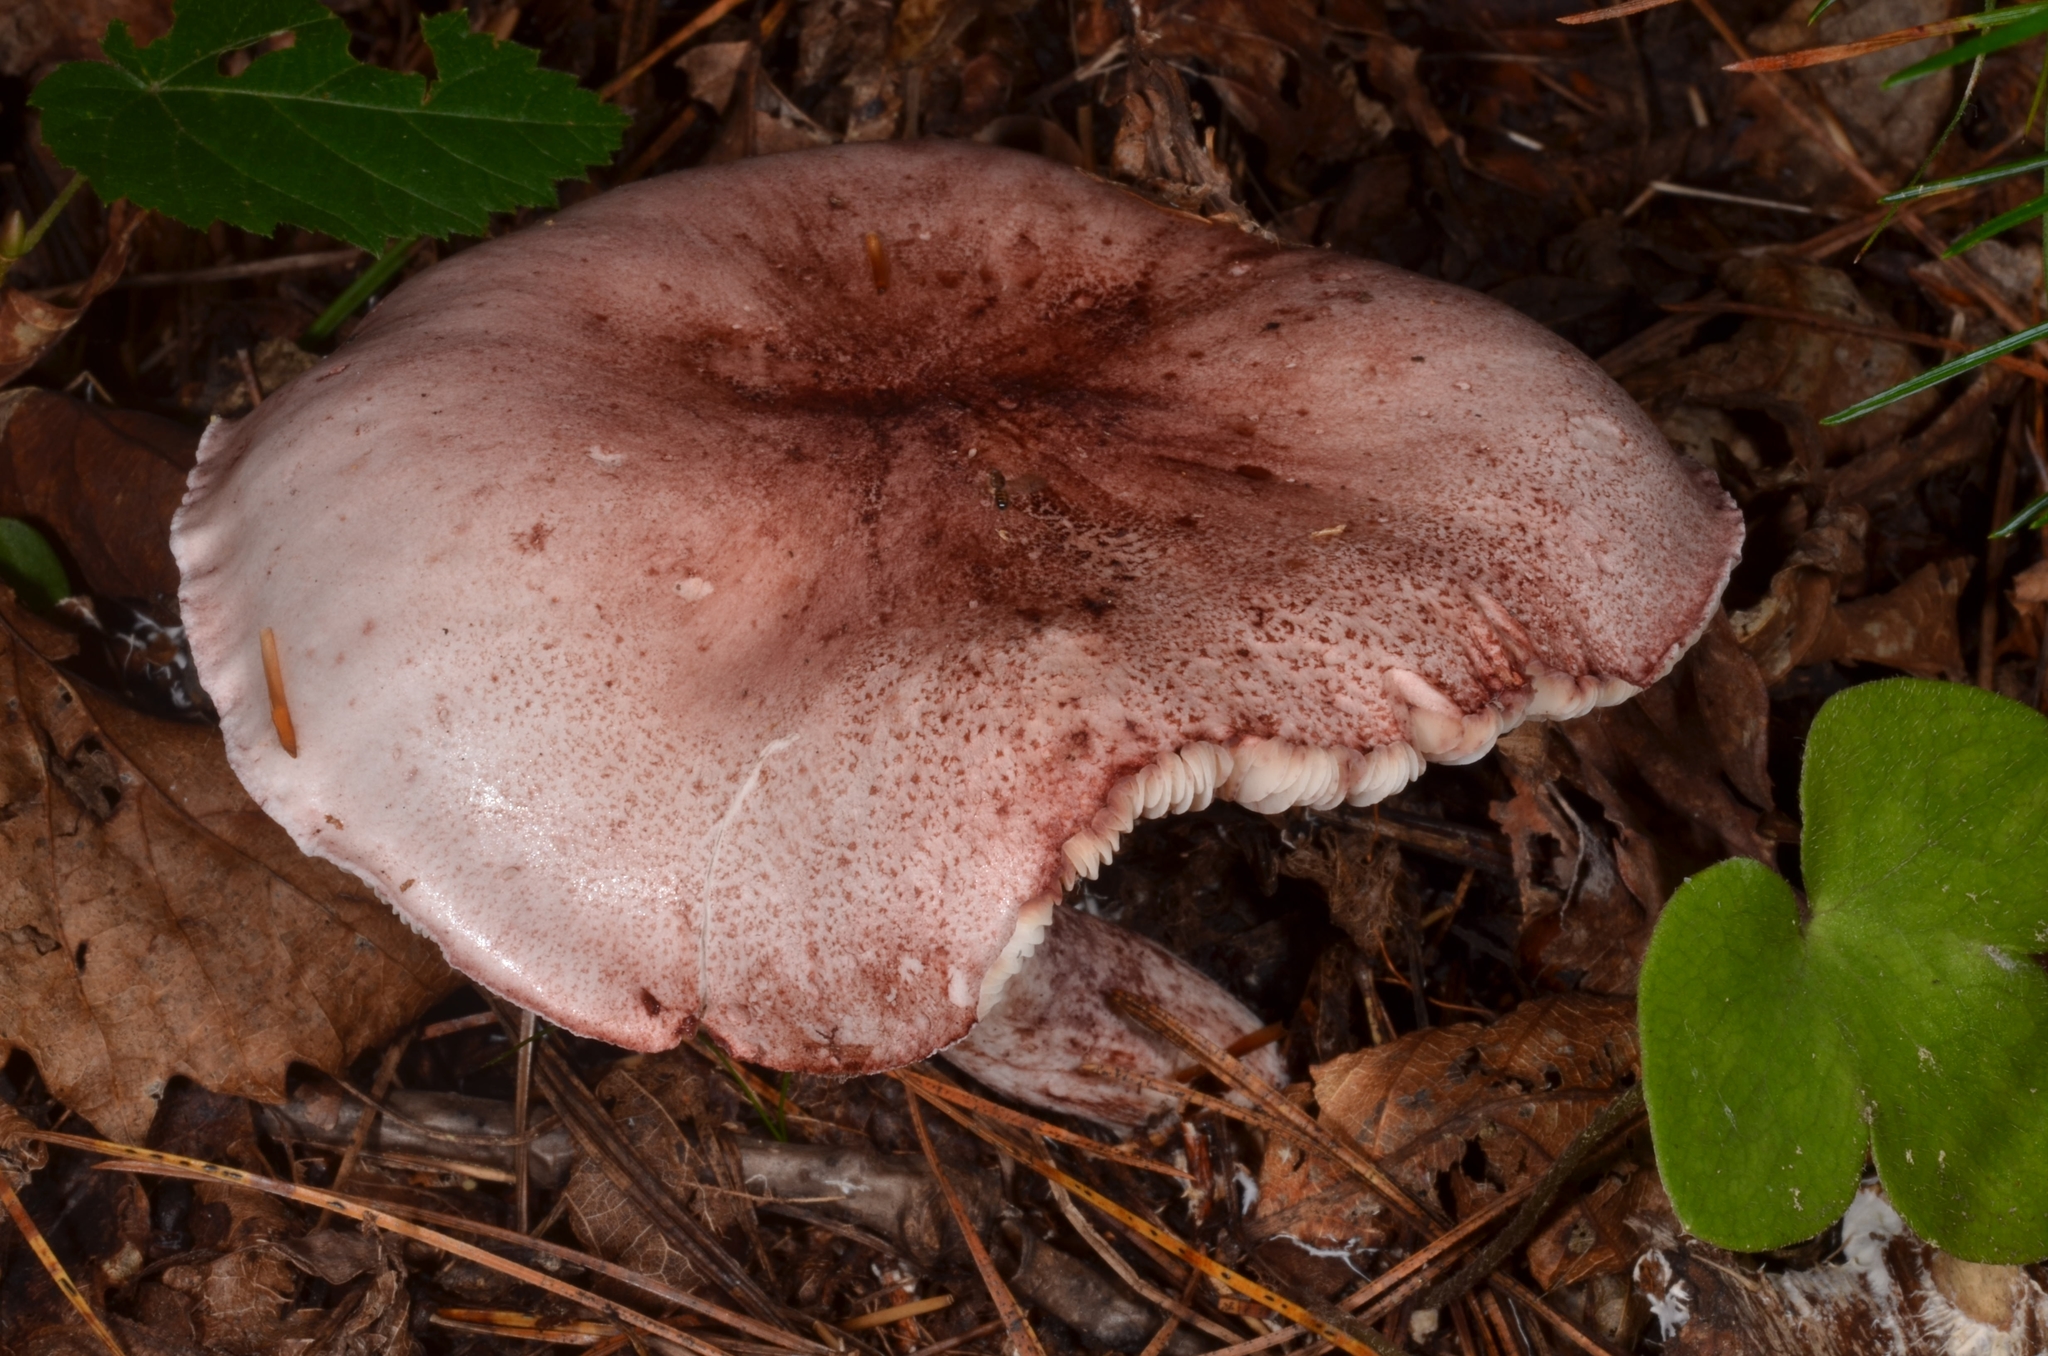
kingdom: Fungi
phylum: Basidiomycota
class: Agaricomycetes
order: Agaricales
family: Hygrophoraceae
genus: Hygrophorus
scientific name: Hygrophorus russula
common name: Pinkmottle woodwax
